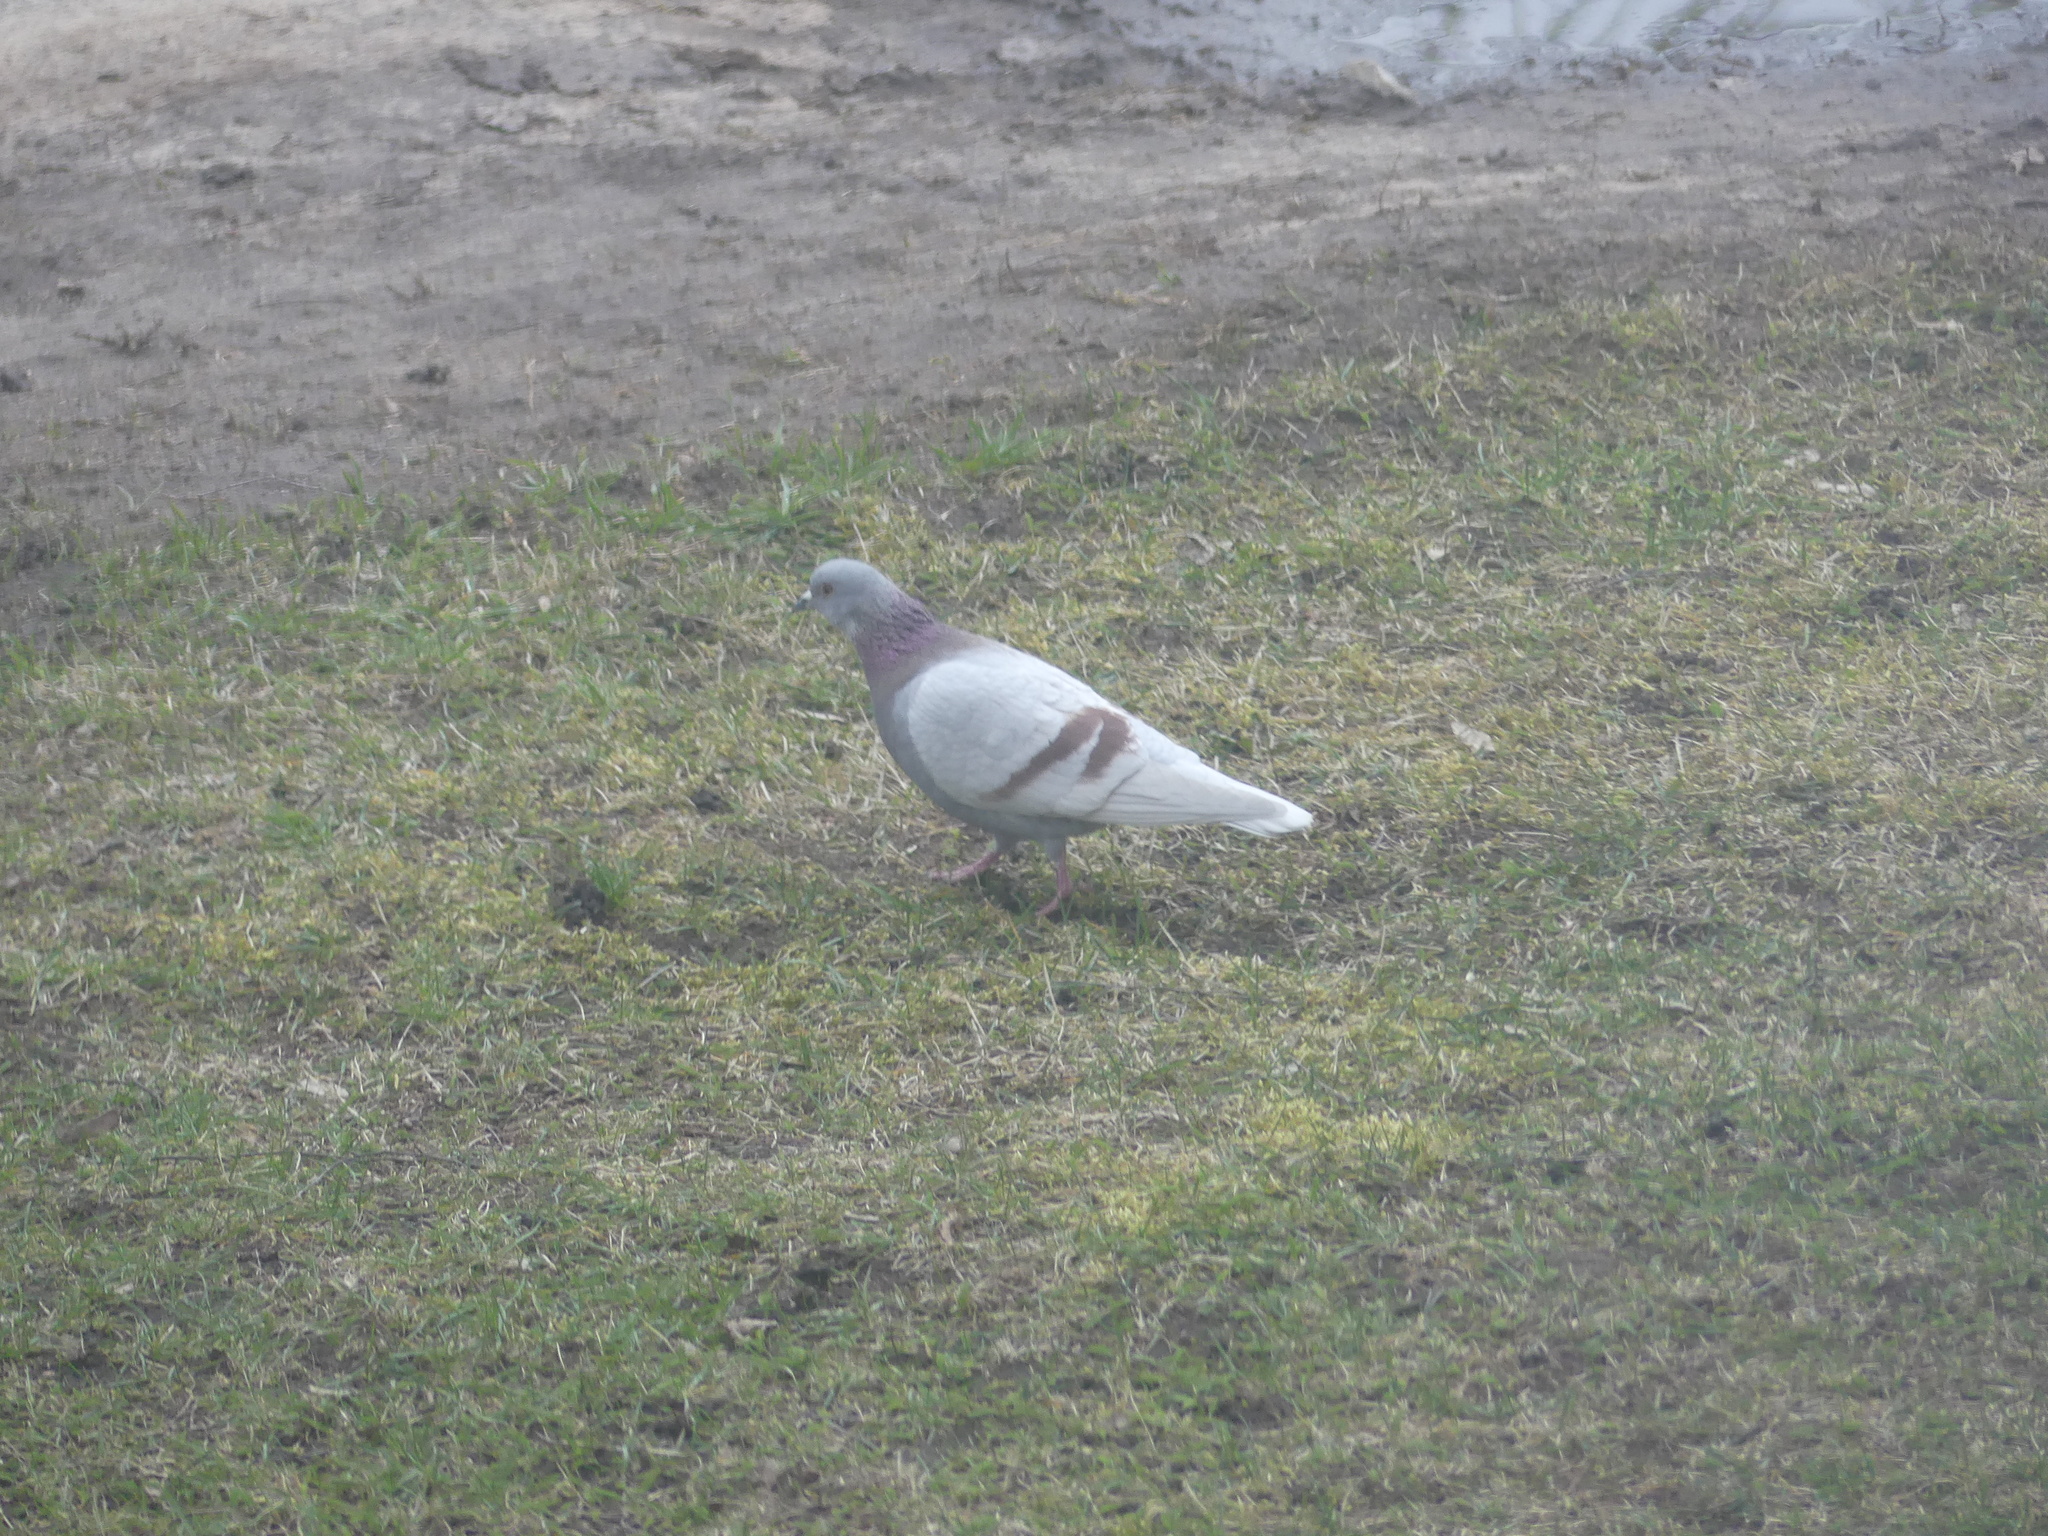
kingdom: Animalia
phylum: Chordata
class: Aves
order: Columbiformes
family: Columbidae
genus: Columba
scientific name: Columba livia
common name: Rock pigeon
